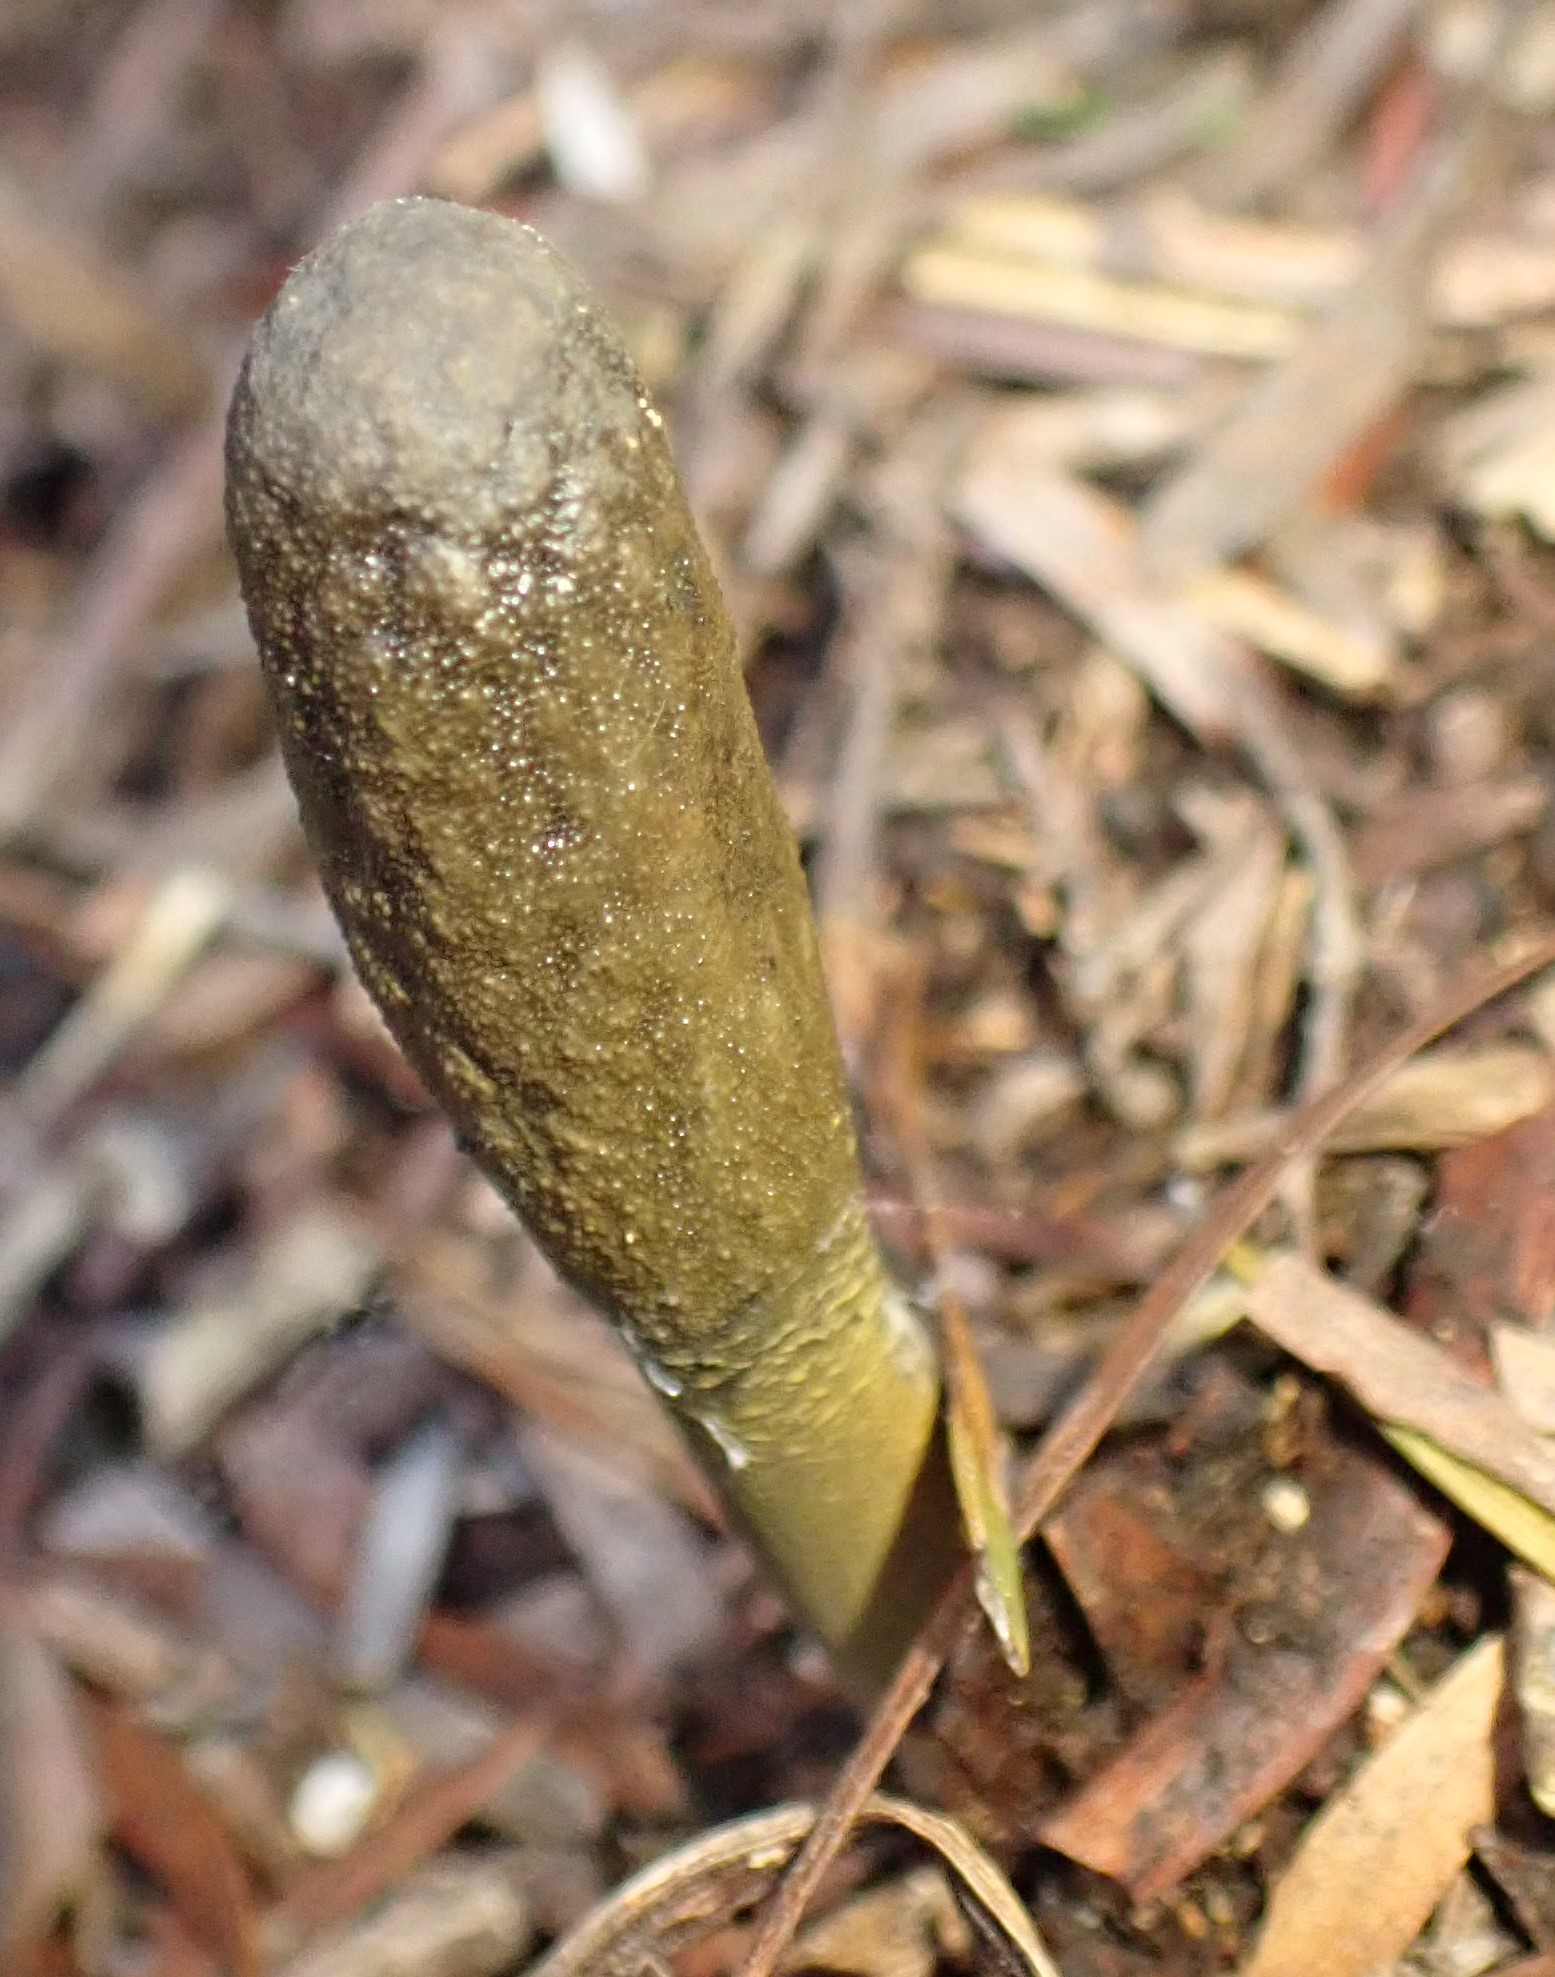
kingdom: Fungi
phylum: Ascomycota
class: Sordariomycetes
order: Hypocreales
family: Clavicipitaceae
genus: Drechmeria
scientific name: Drechmeria gunnii
